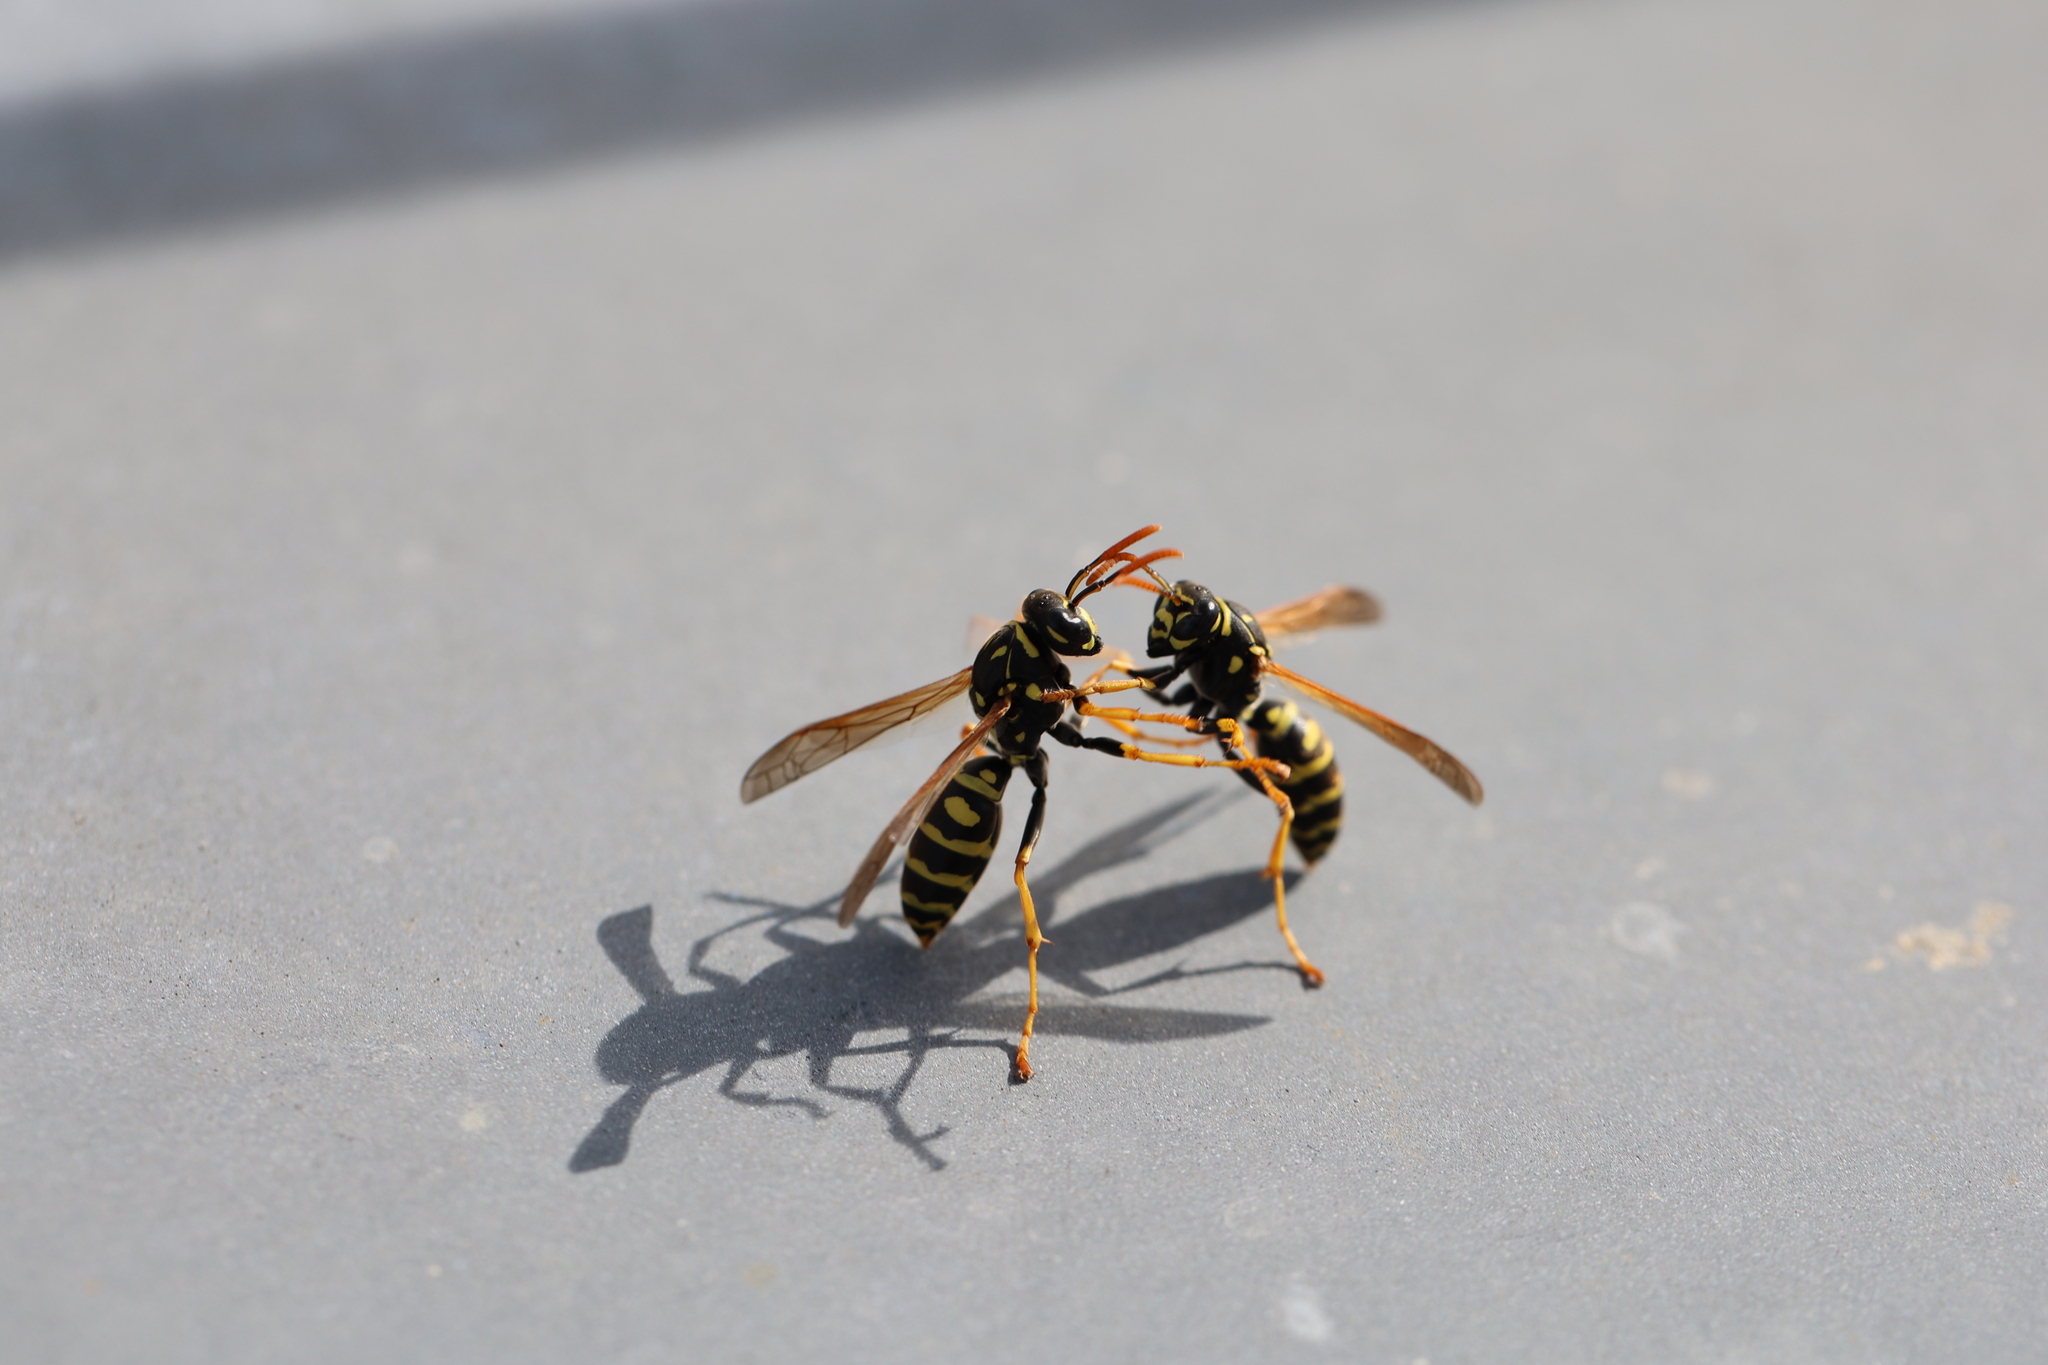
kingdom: Animalia
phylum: Arthropoda
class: Insecta
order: Hymenoptera
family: Eumenidae
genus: Polistes
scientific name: Polistes dominula
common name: Paper wasp
